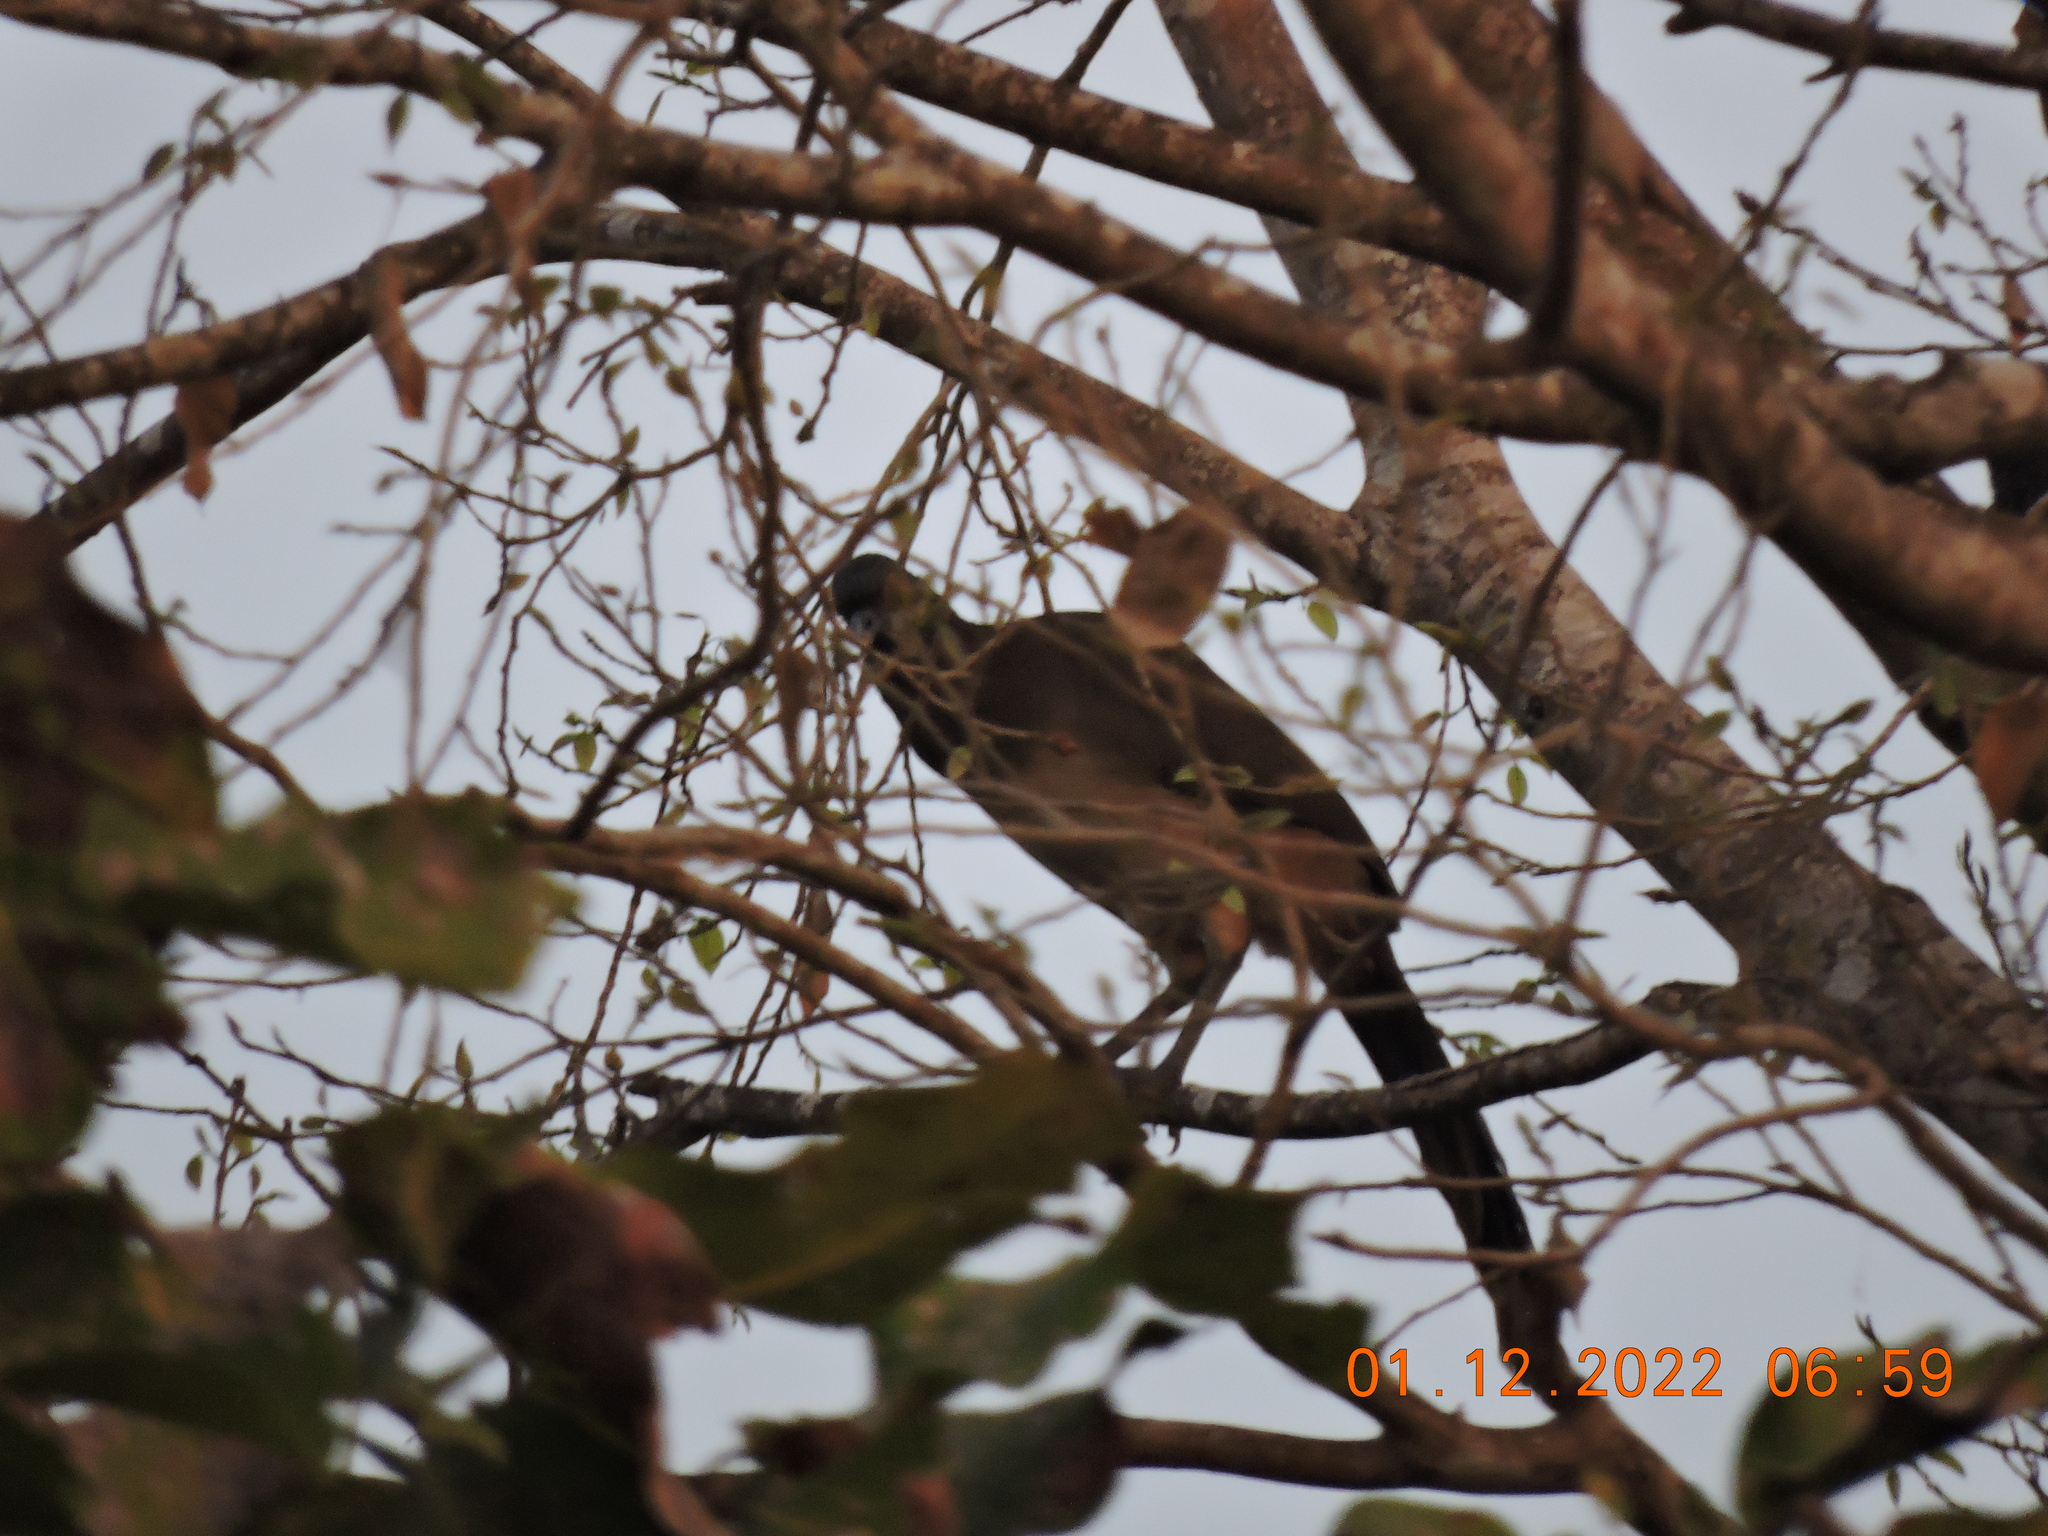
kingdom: Animalia
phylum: Chordata
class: Aves
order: Galliformes
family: Cracidae
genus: Ortalis
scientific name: Ortalis poliocephala
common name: West mexican chachalaca
